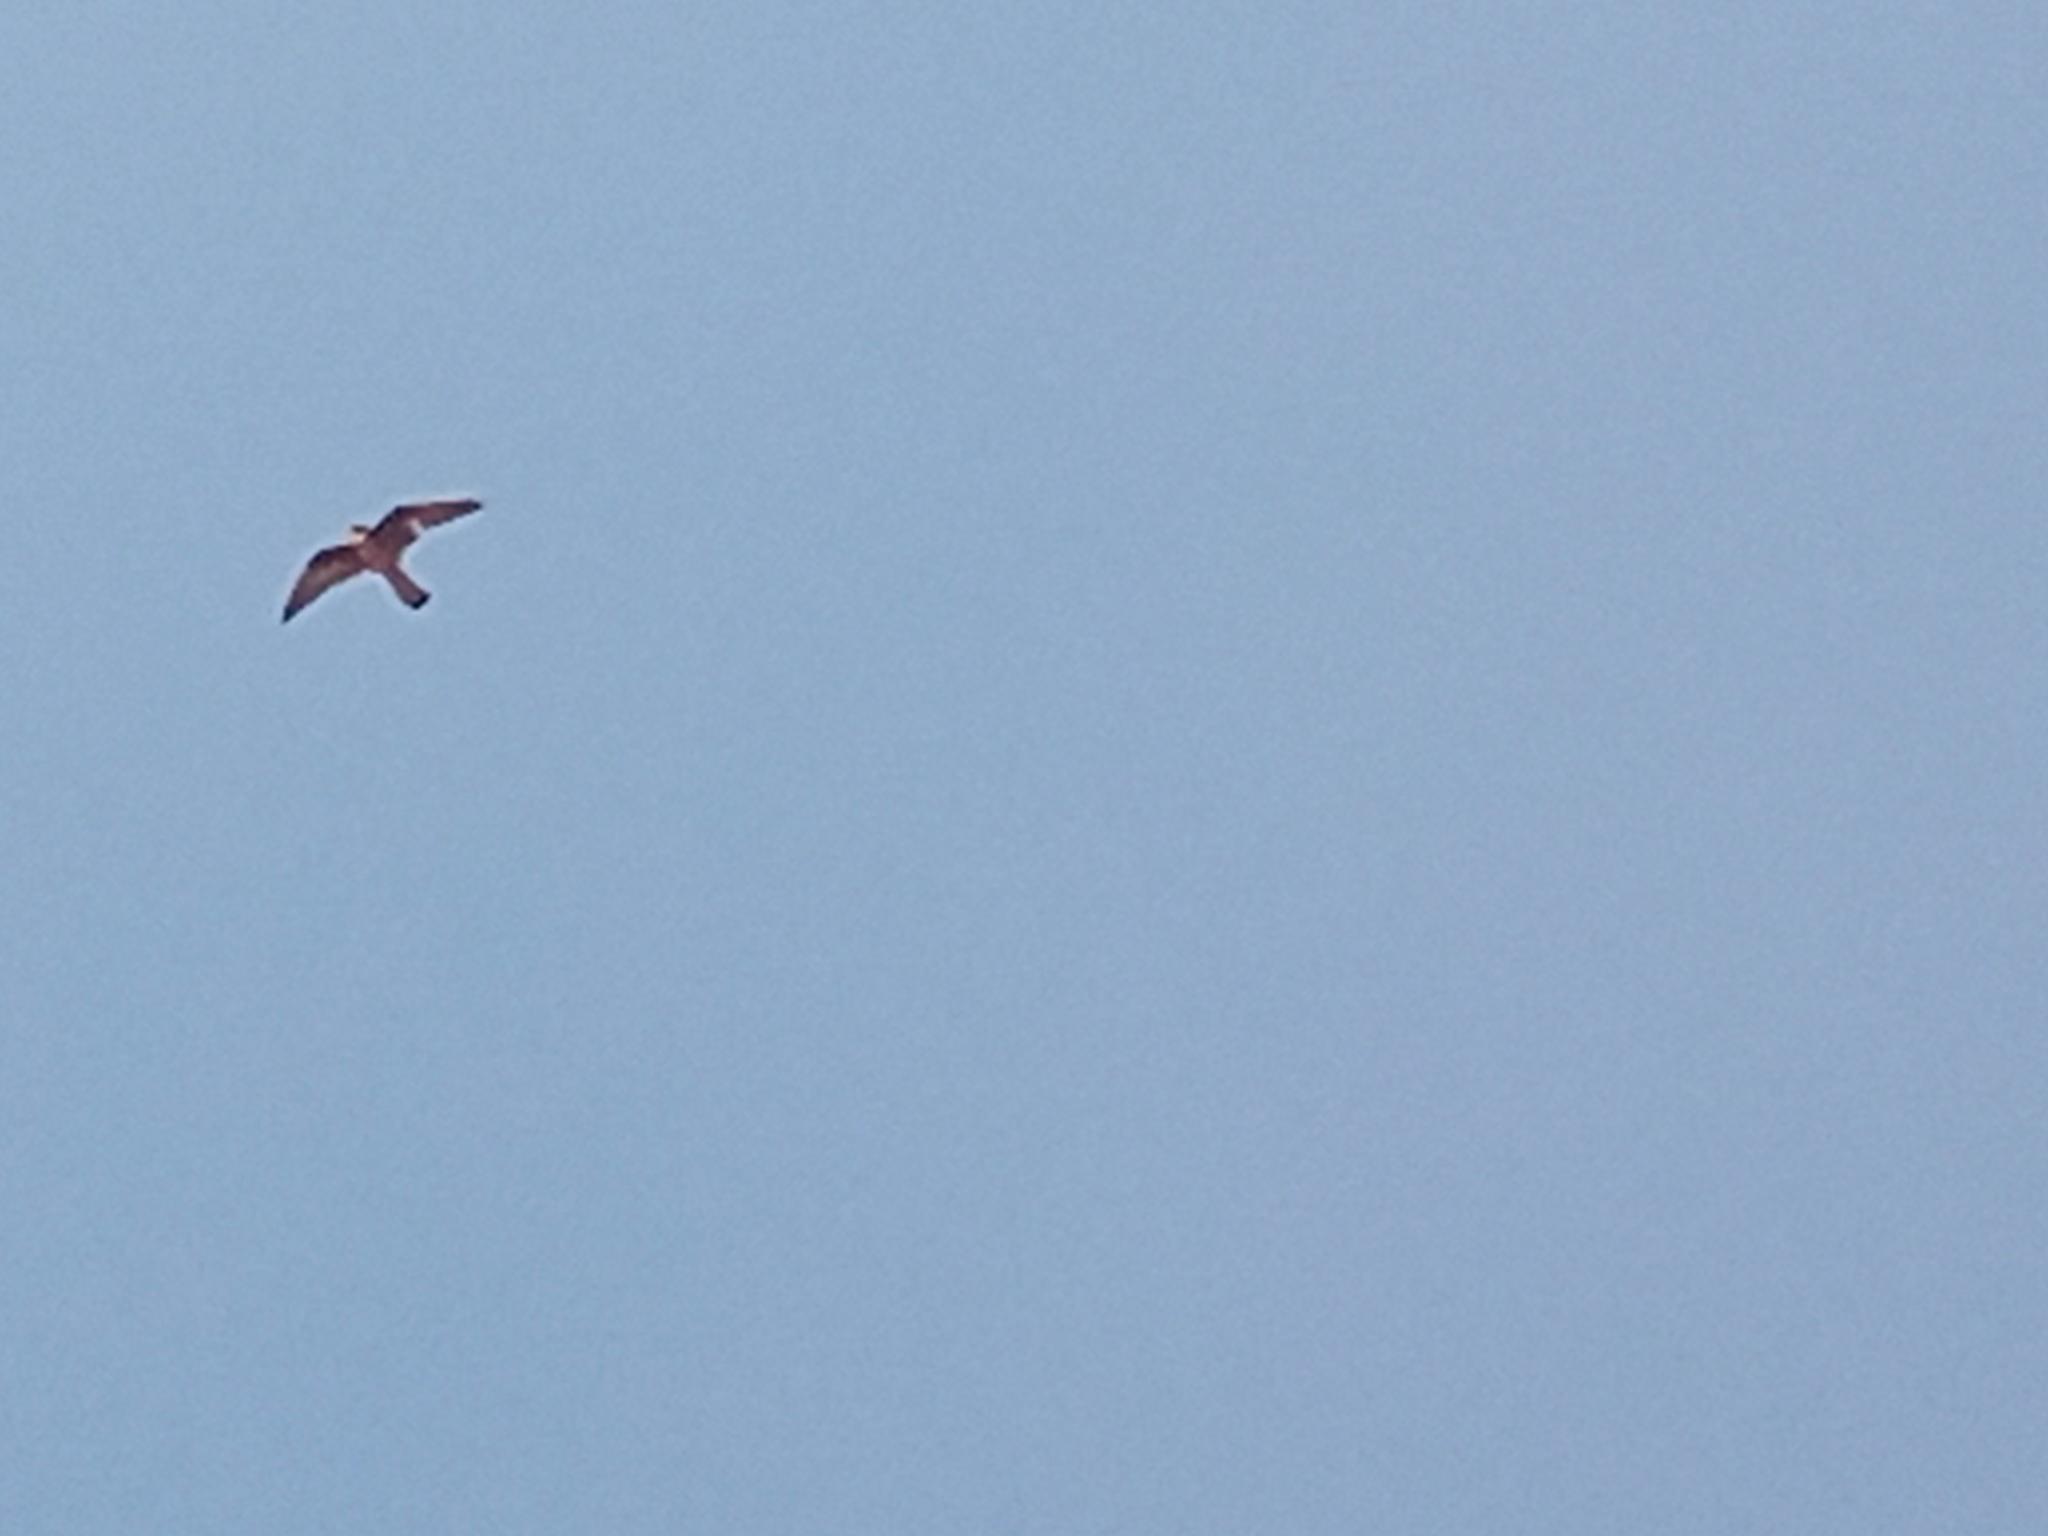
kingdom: Animalia
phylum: Chordata
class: Aves
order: Falconiformes
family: Falconidae
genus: Falco
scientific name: Falco eleonorae
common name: Eleonora's falcon
